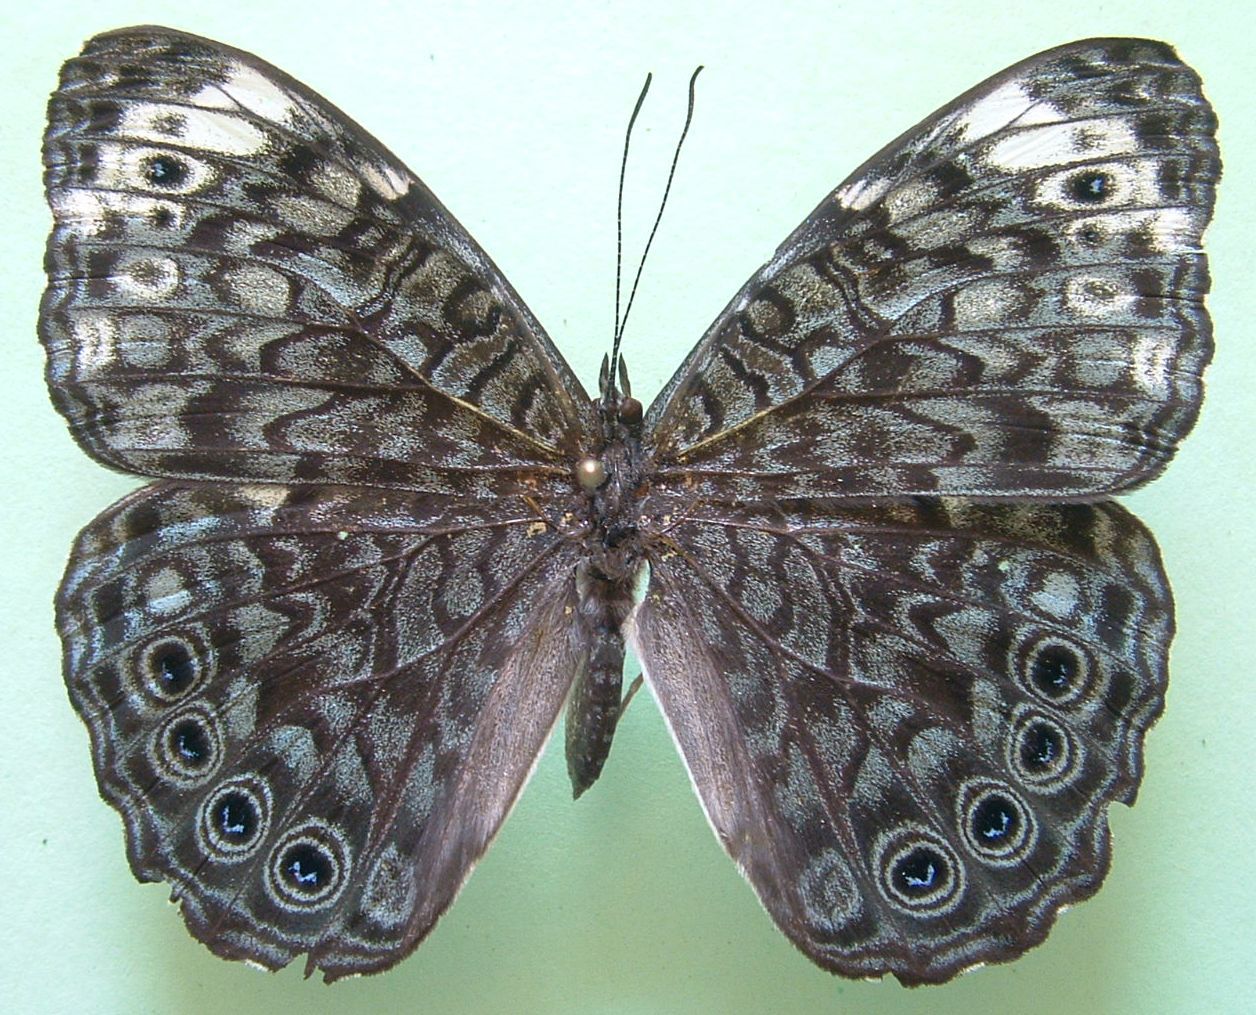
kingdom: Animalia
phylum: Arthropoda
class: Insecta
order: Lepidoptera
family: Nymphalidae
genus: Hamadryas
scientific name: Hamadryas atlantis
